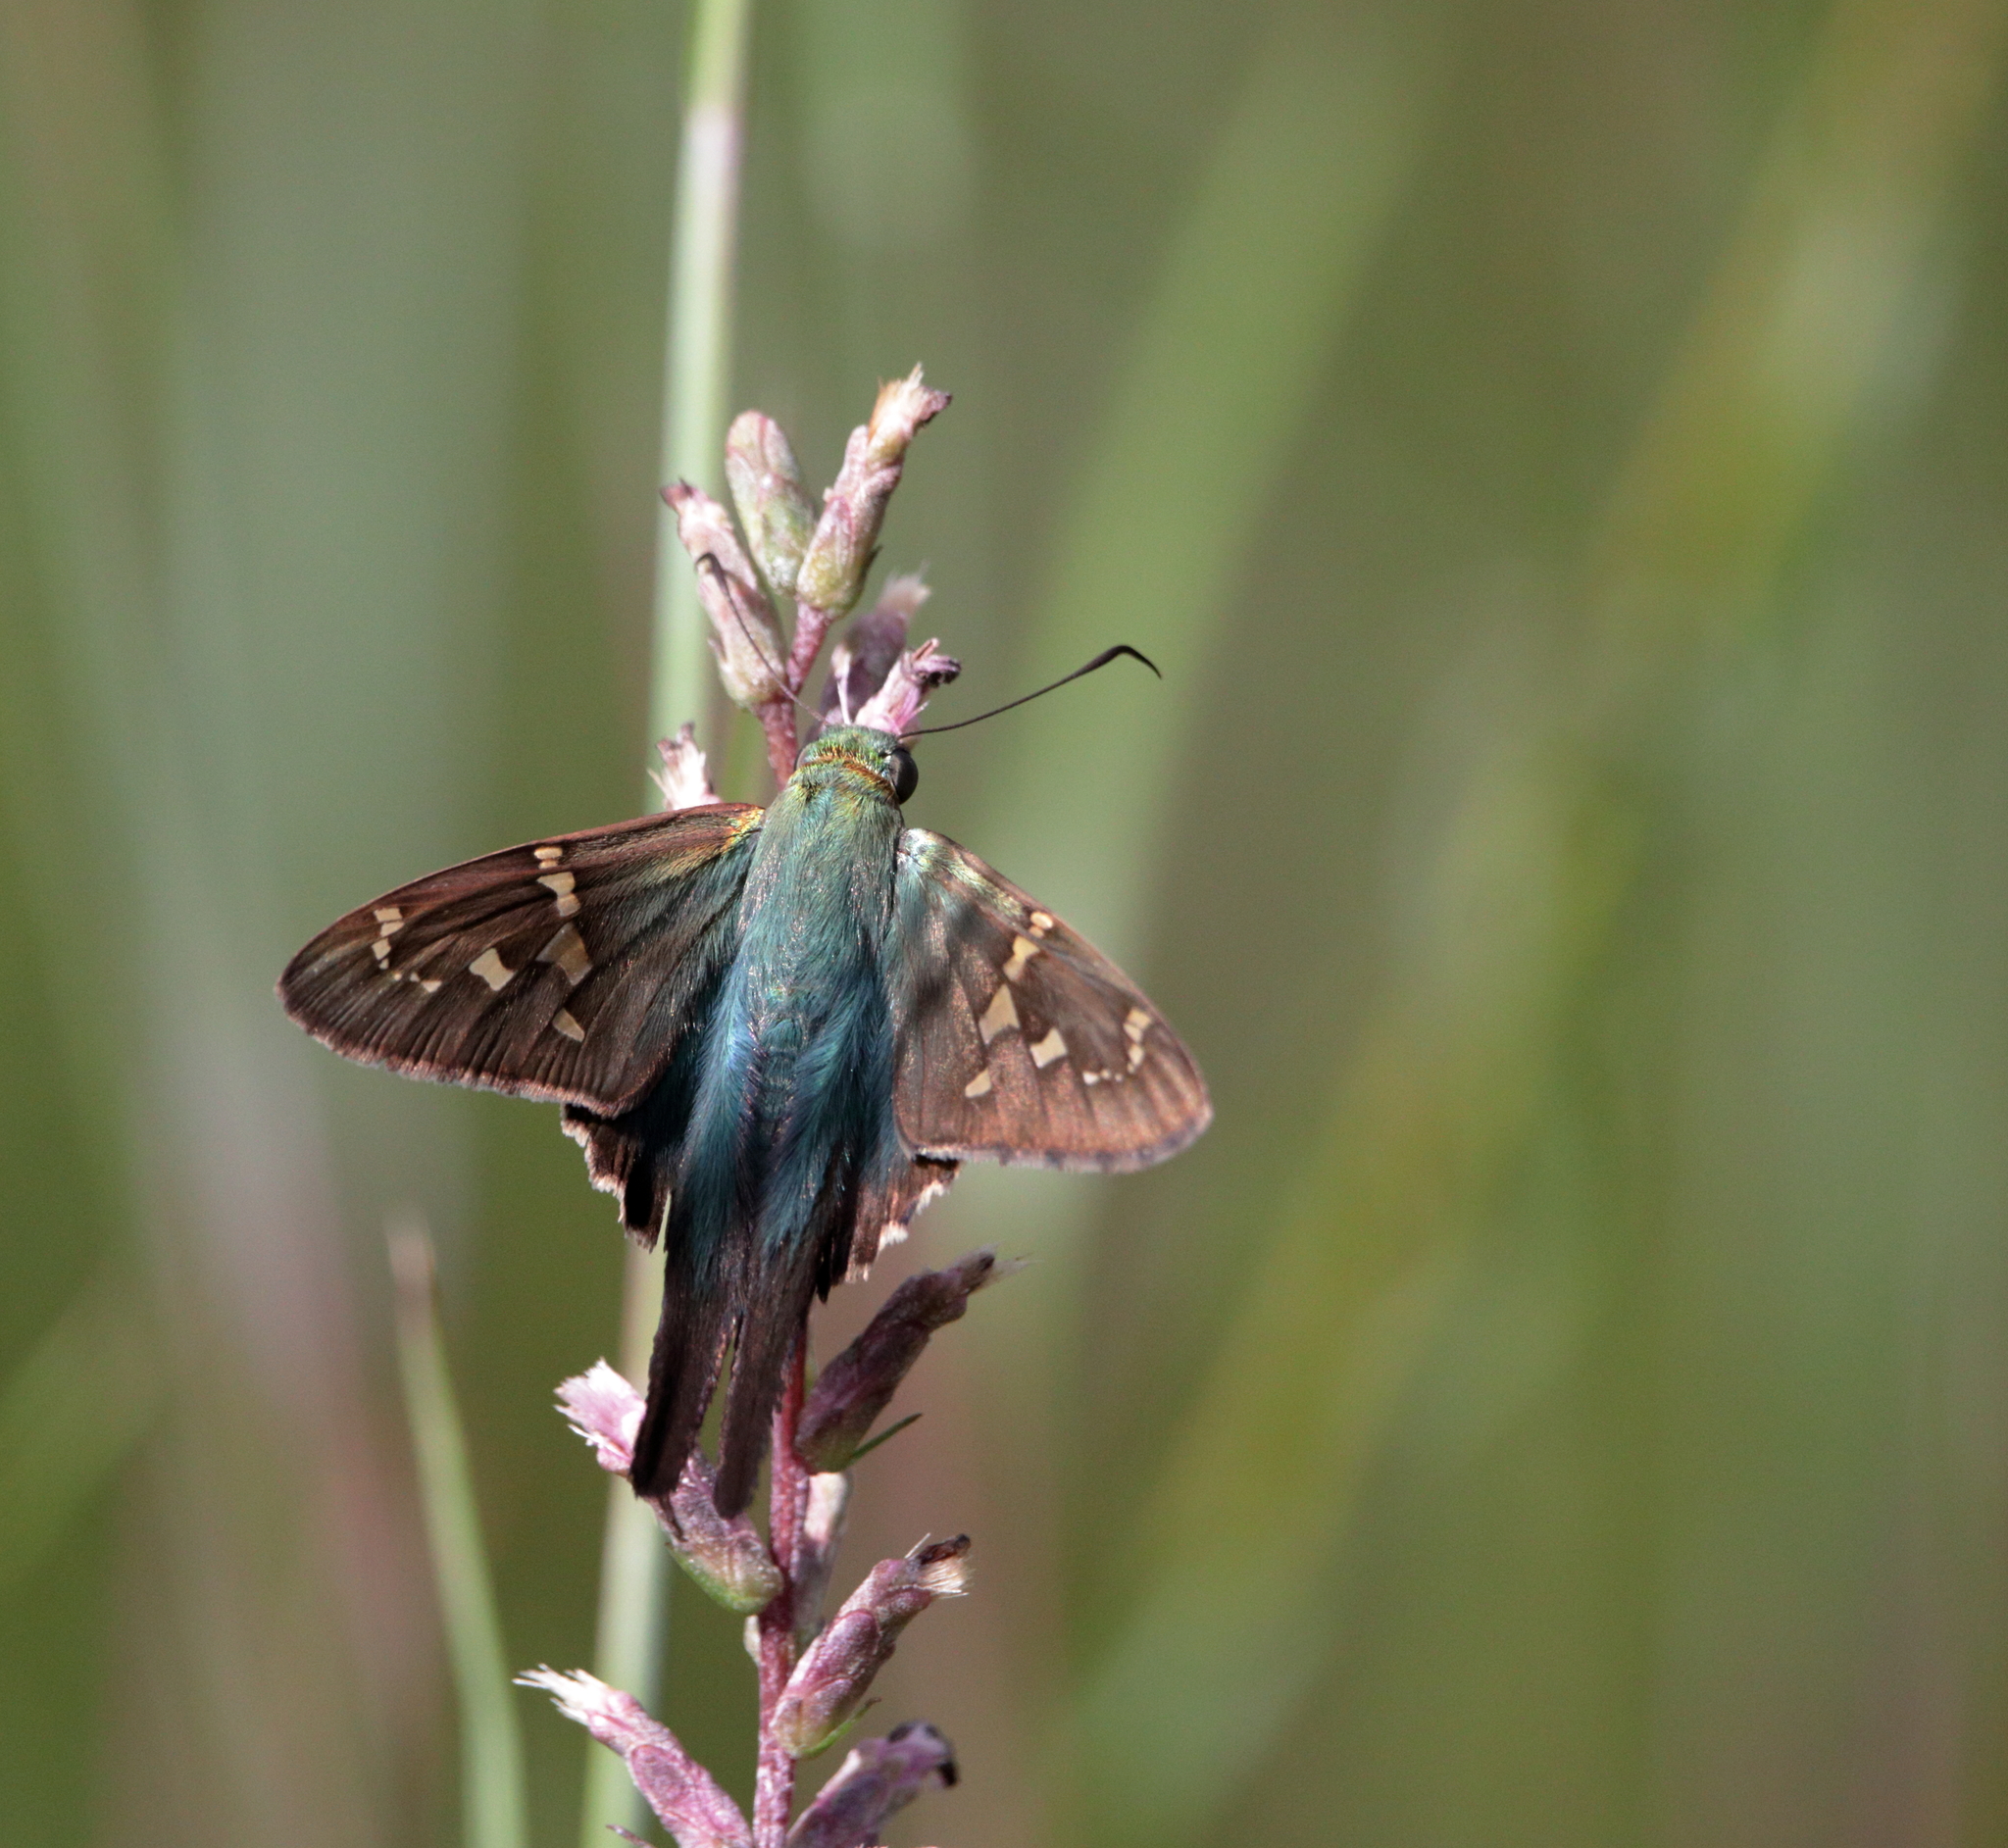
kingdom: Animalia
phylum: Arthropoda
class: Insecta
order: Lepidoptera
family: Hesperiidae
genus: Urbanus
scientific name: Urbanus proteus
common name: Long-tailed skipper
